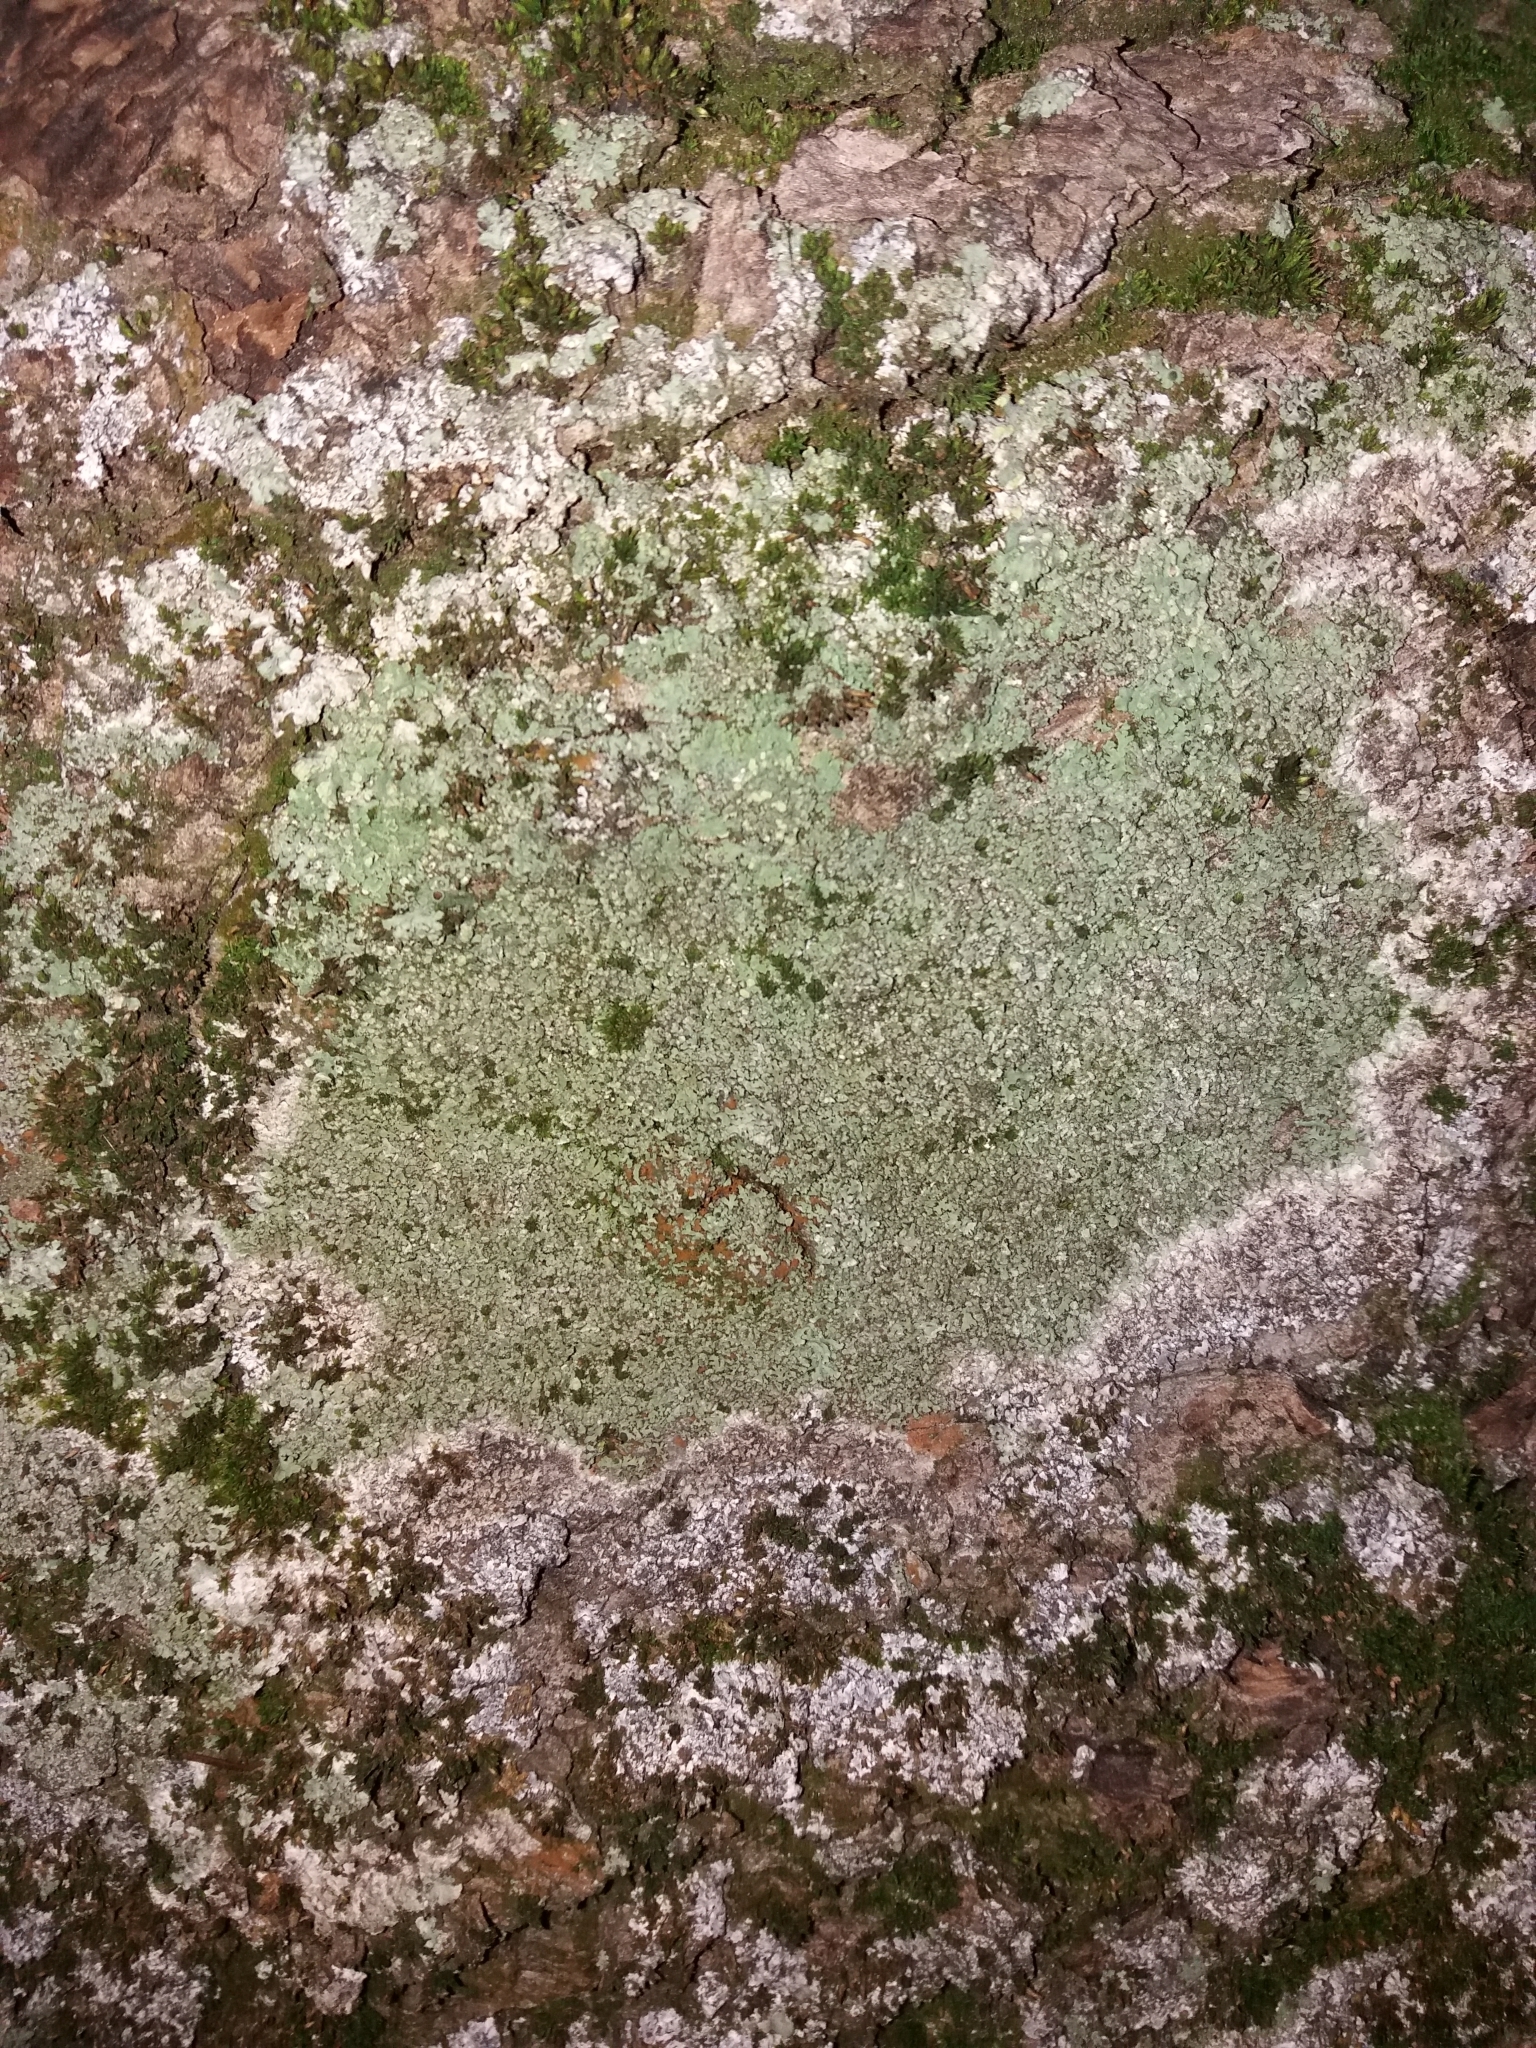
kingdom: Fungi
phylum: Ascomycota
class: Lecanoromycetes
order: Caliciales
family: Physciaceae
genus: Phaeophyscia
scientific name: Phaeophyscia orbicularis
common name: Mealy shadow lichen
